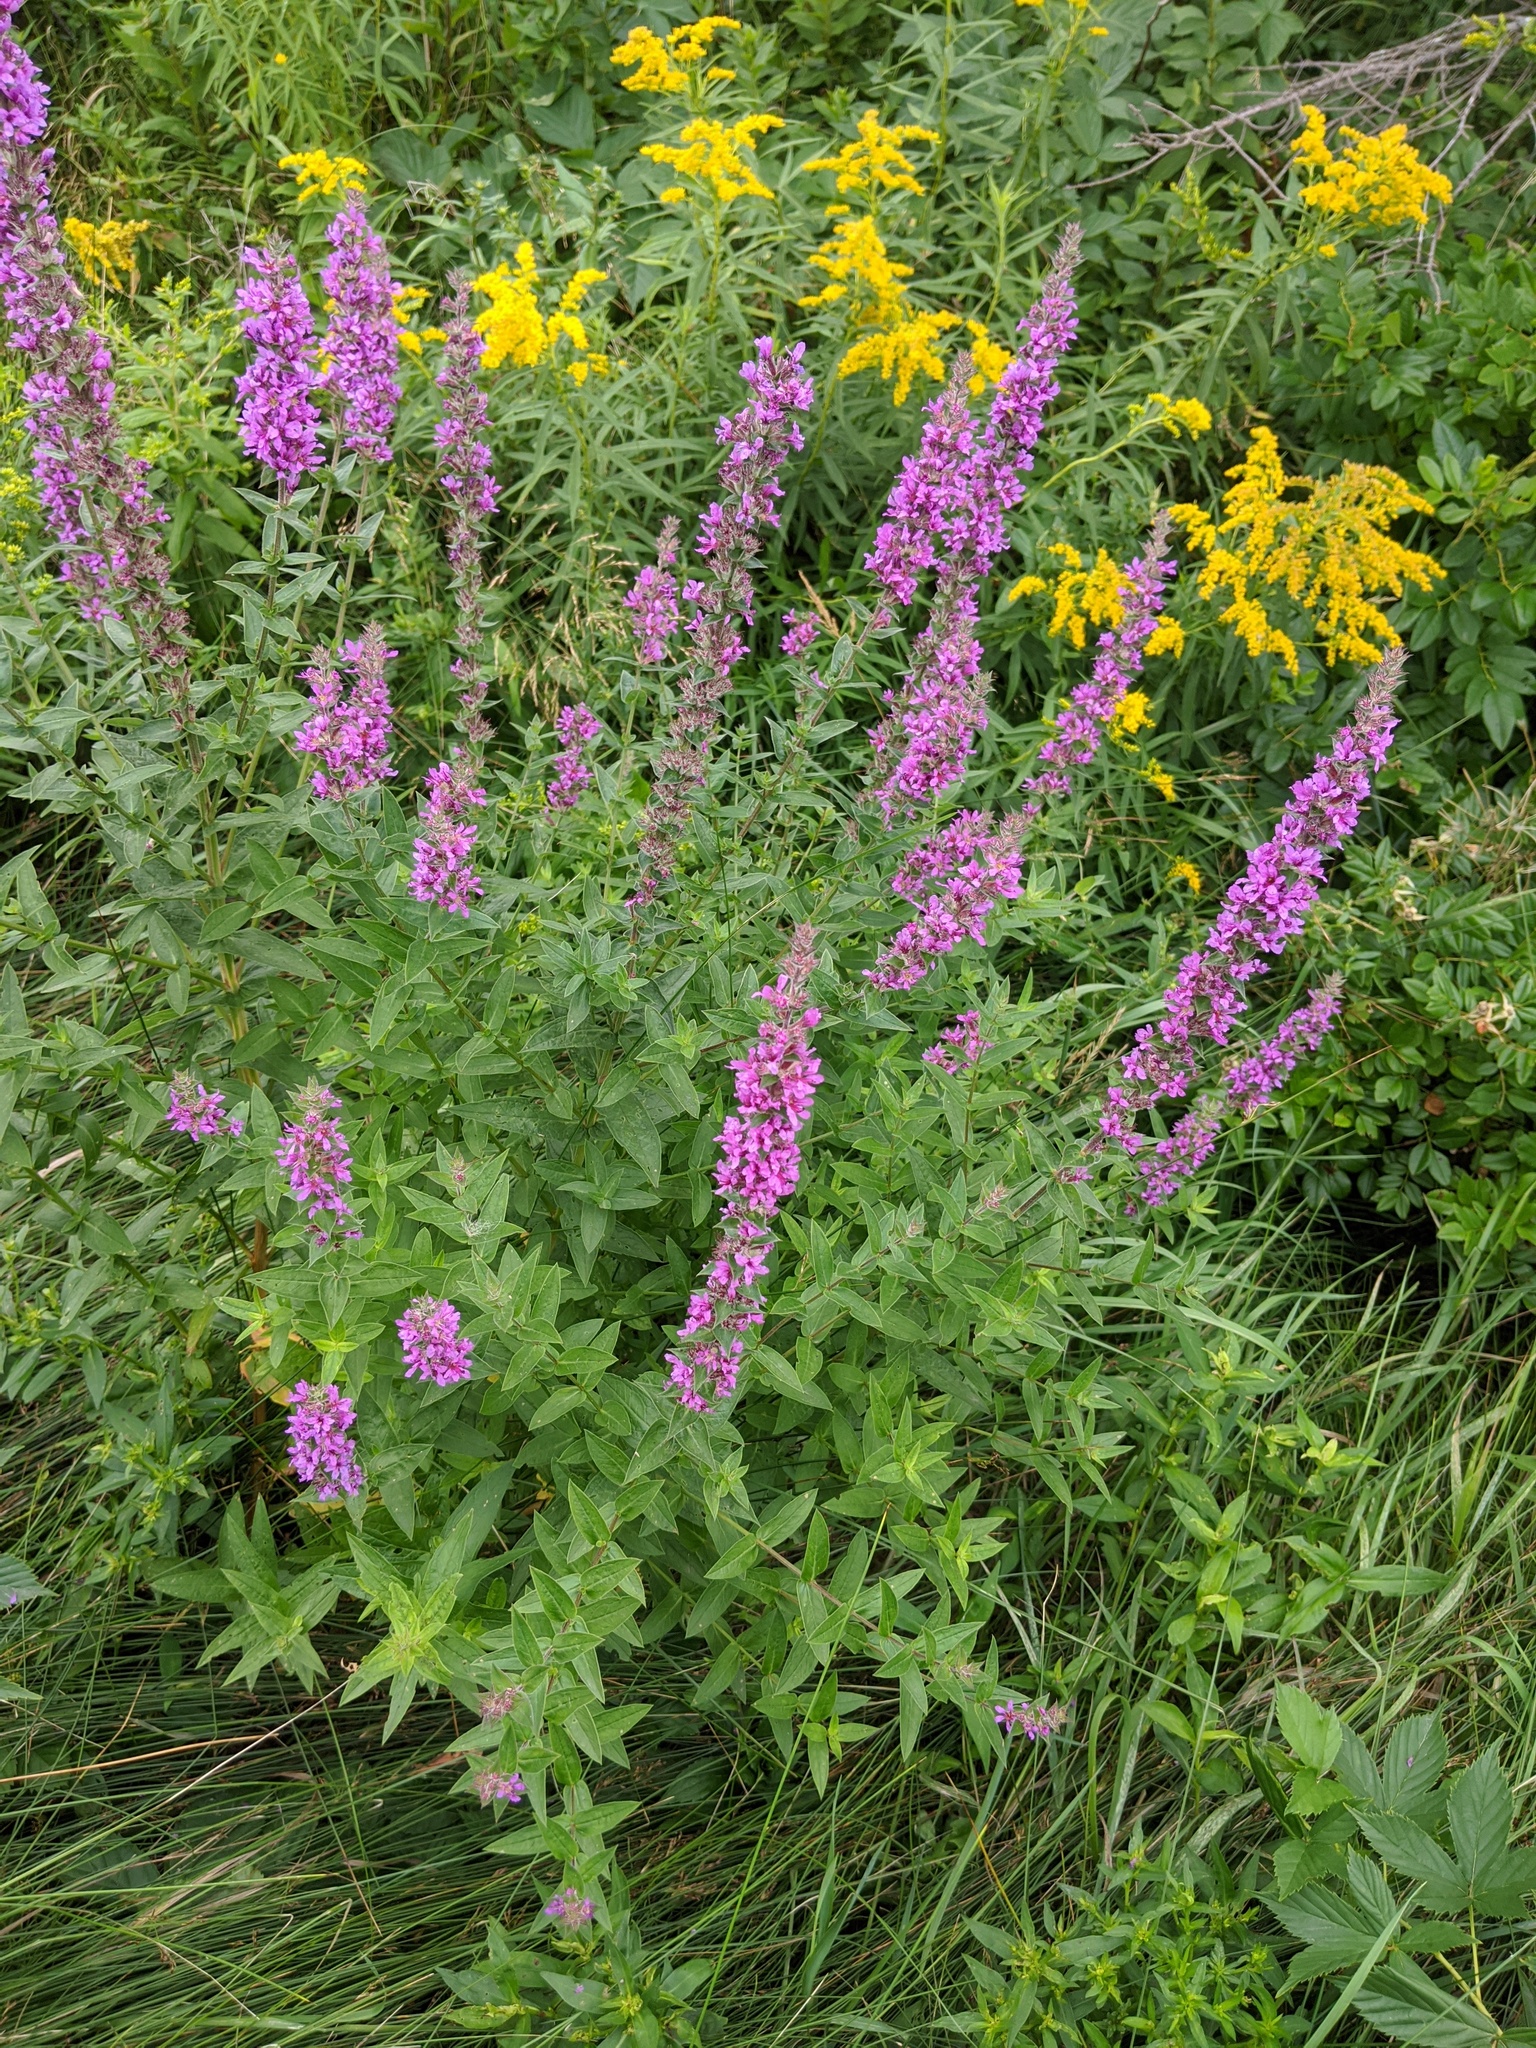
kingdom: Plantae
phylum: Tracheophyta
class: Magnoliopsida
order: Myrtales
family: Lythraceae
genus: Lythrum
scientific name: Lythrum salicaria
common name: Purple loosestrife
